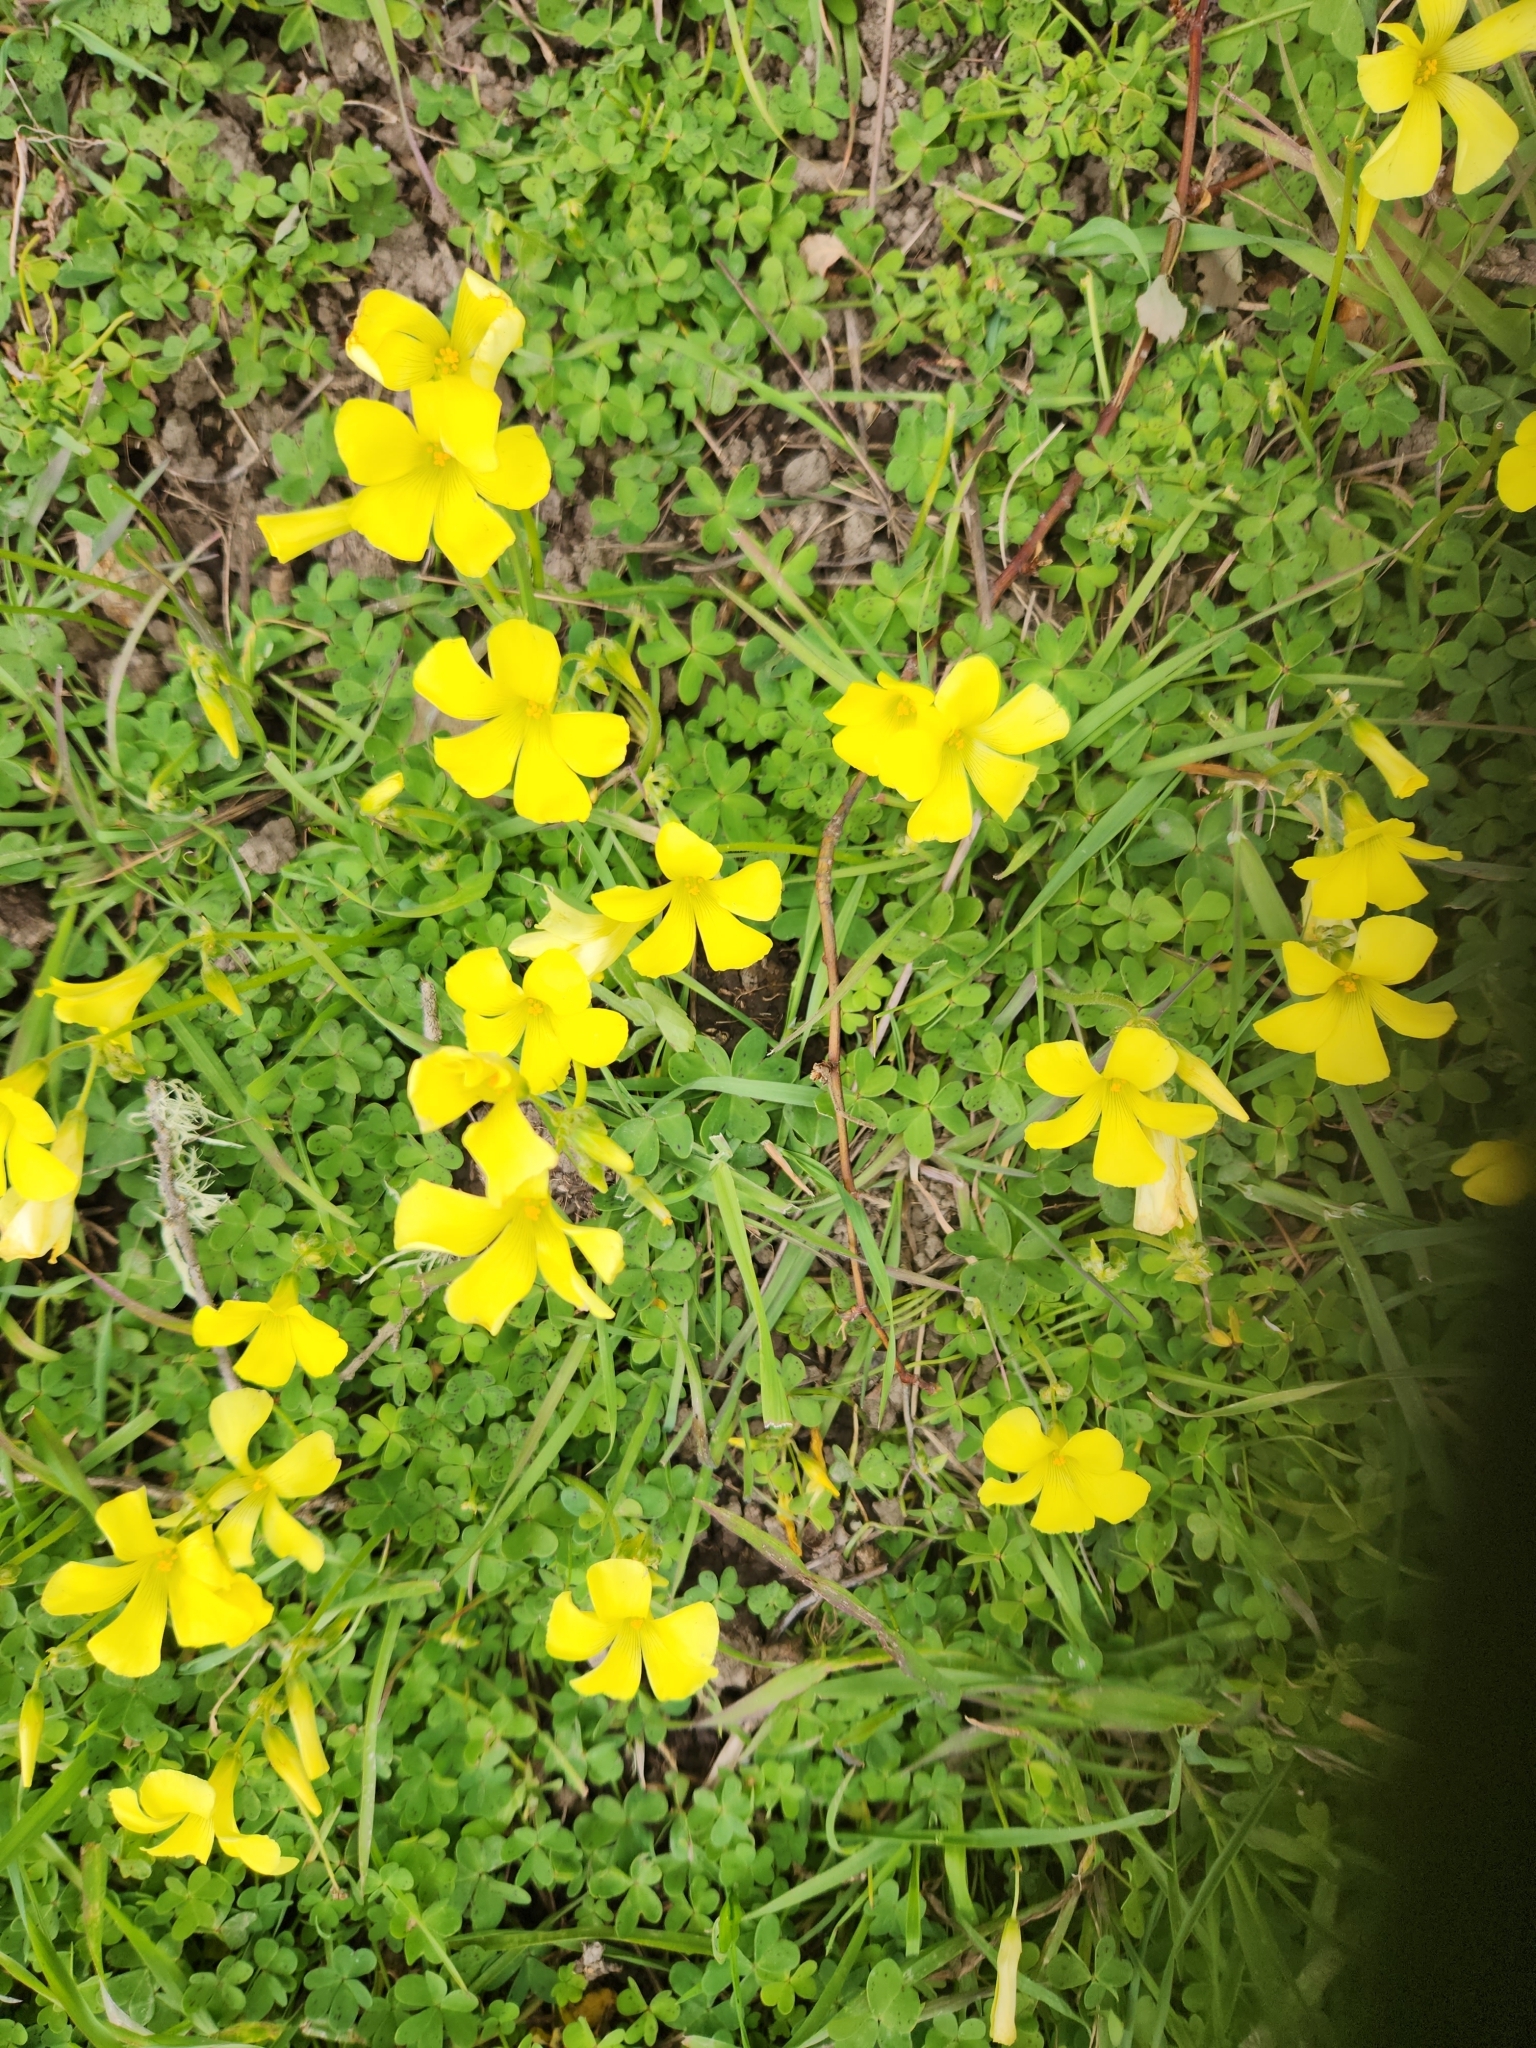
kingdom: Plantae
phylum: Tracheophyta
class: Magnoliopsida
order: Oxalidales
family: Oxalidaceae
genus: Oxalis
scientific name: Oxalis pes-caprae
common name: Bermuda-buttercup
